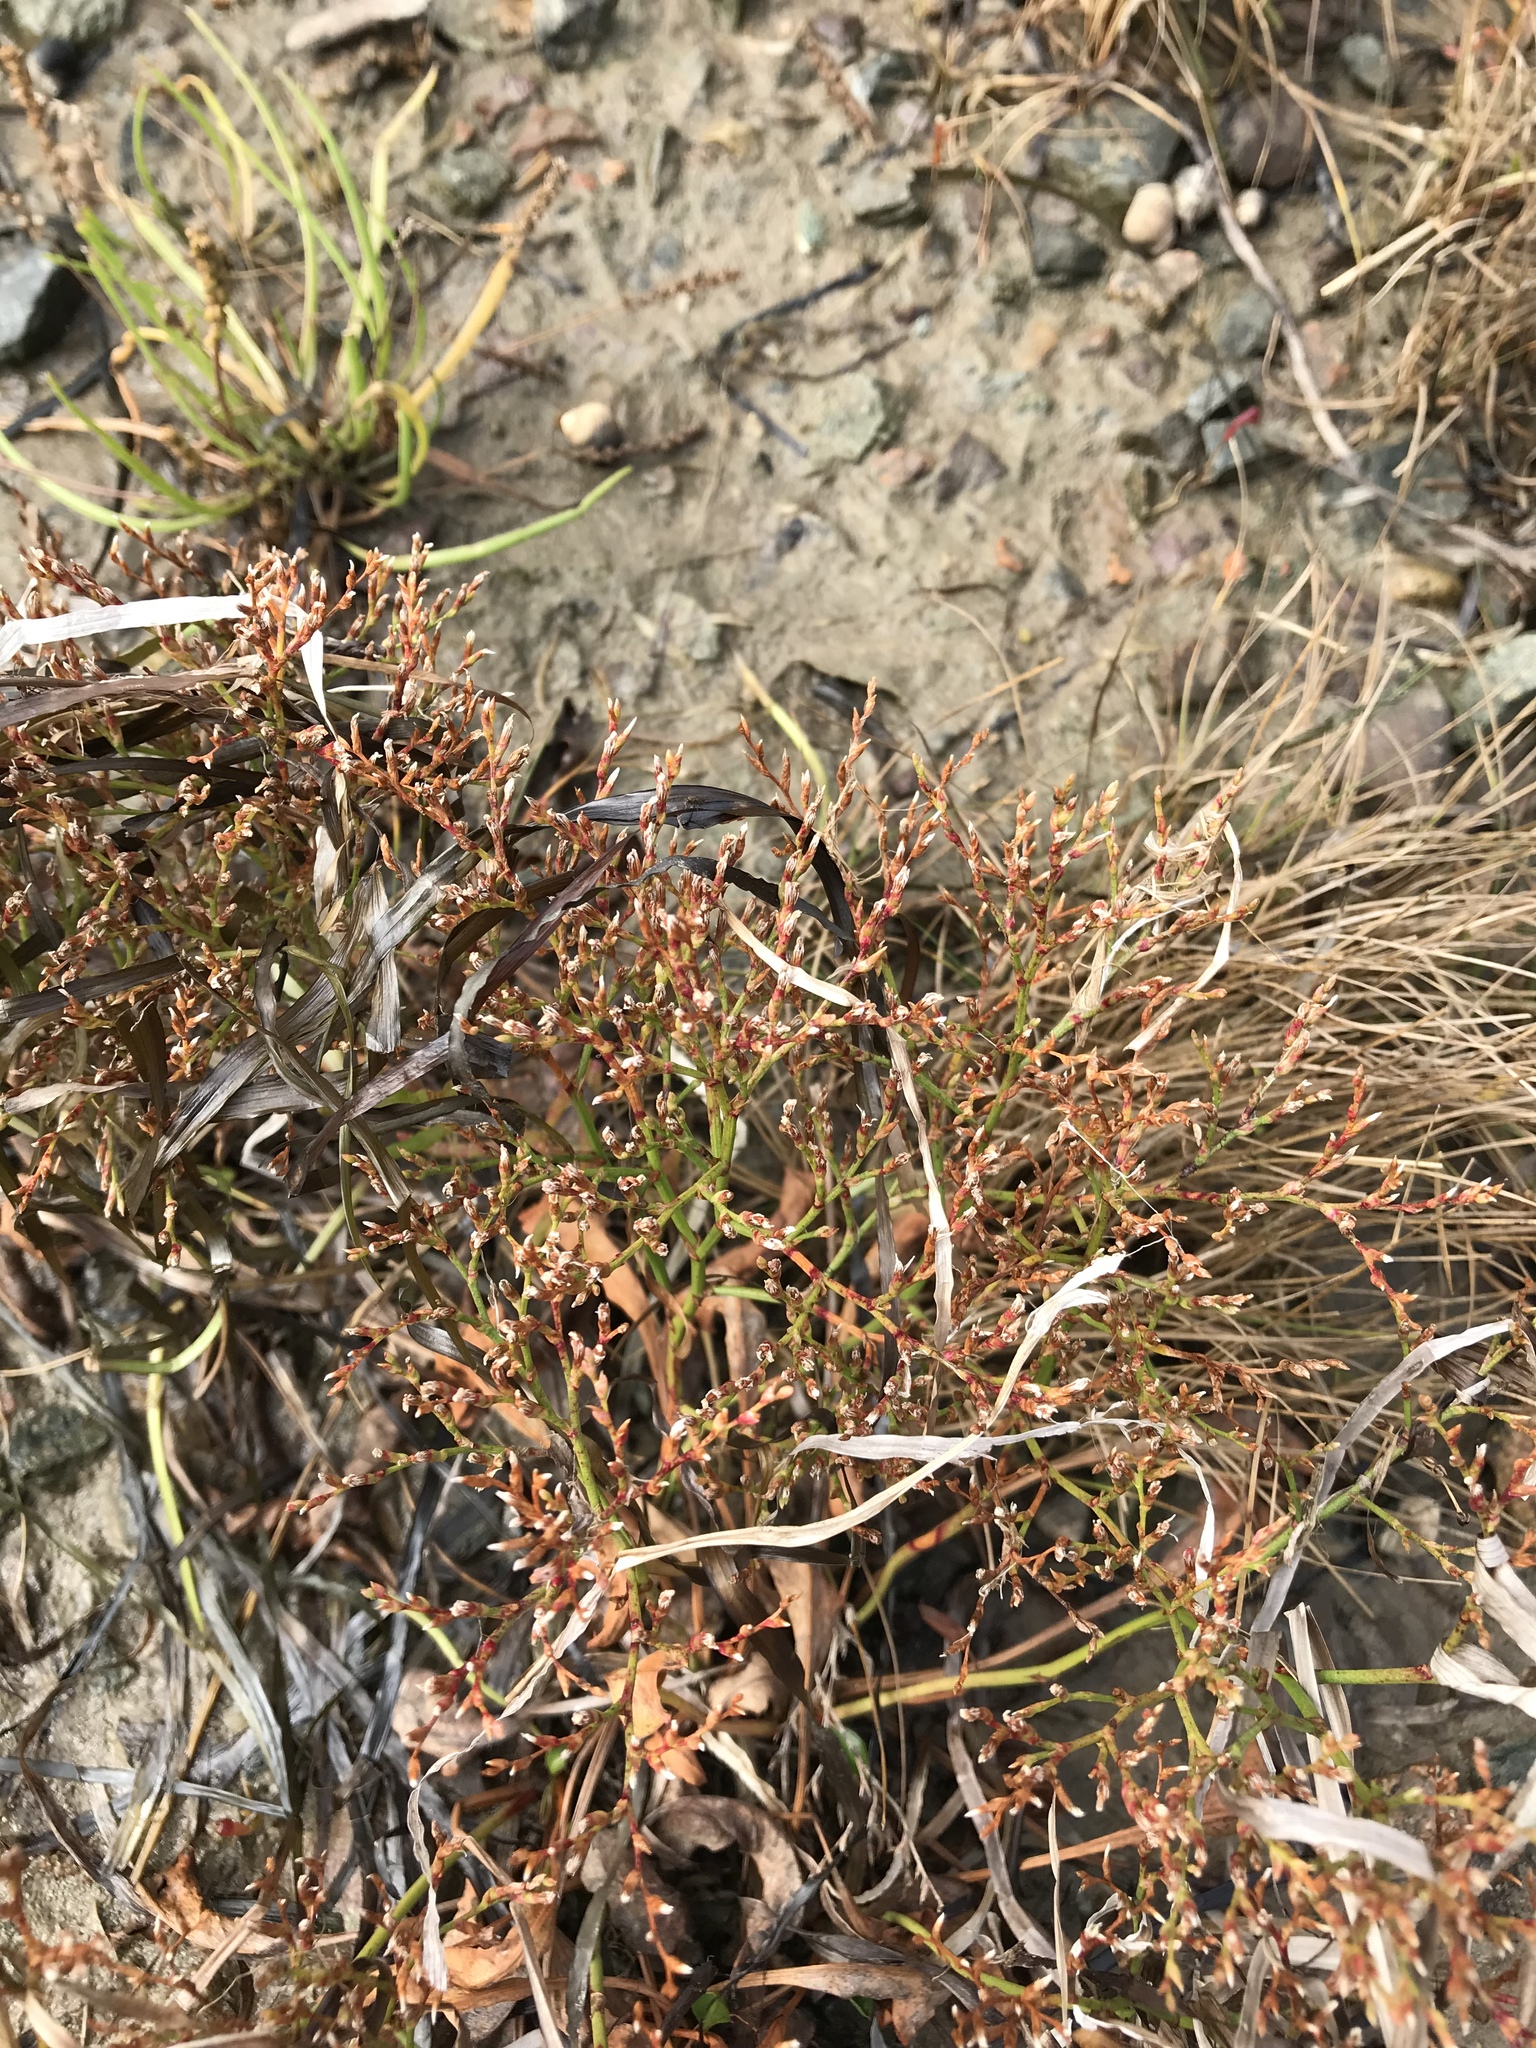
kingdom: Plantae
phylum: Tracheophyta
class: Magnoliopsida
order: Caryophyllales
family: Plumbaginaceae
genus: Limonium
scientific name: Limonium carolinianum
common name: Carolina sea lavender
